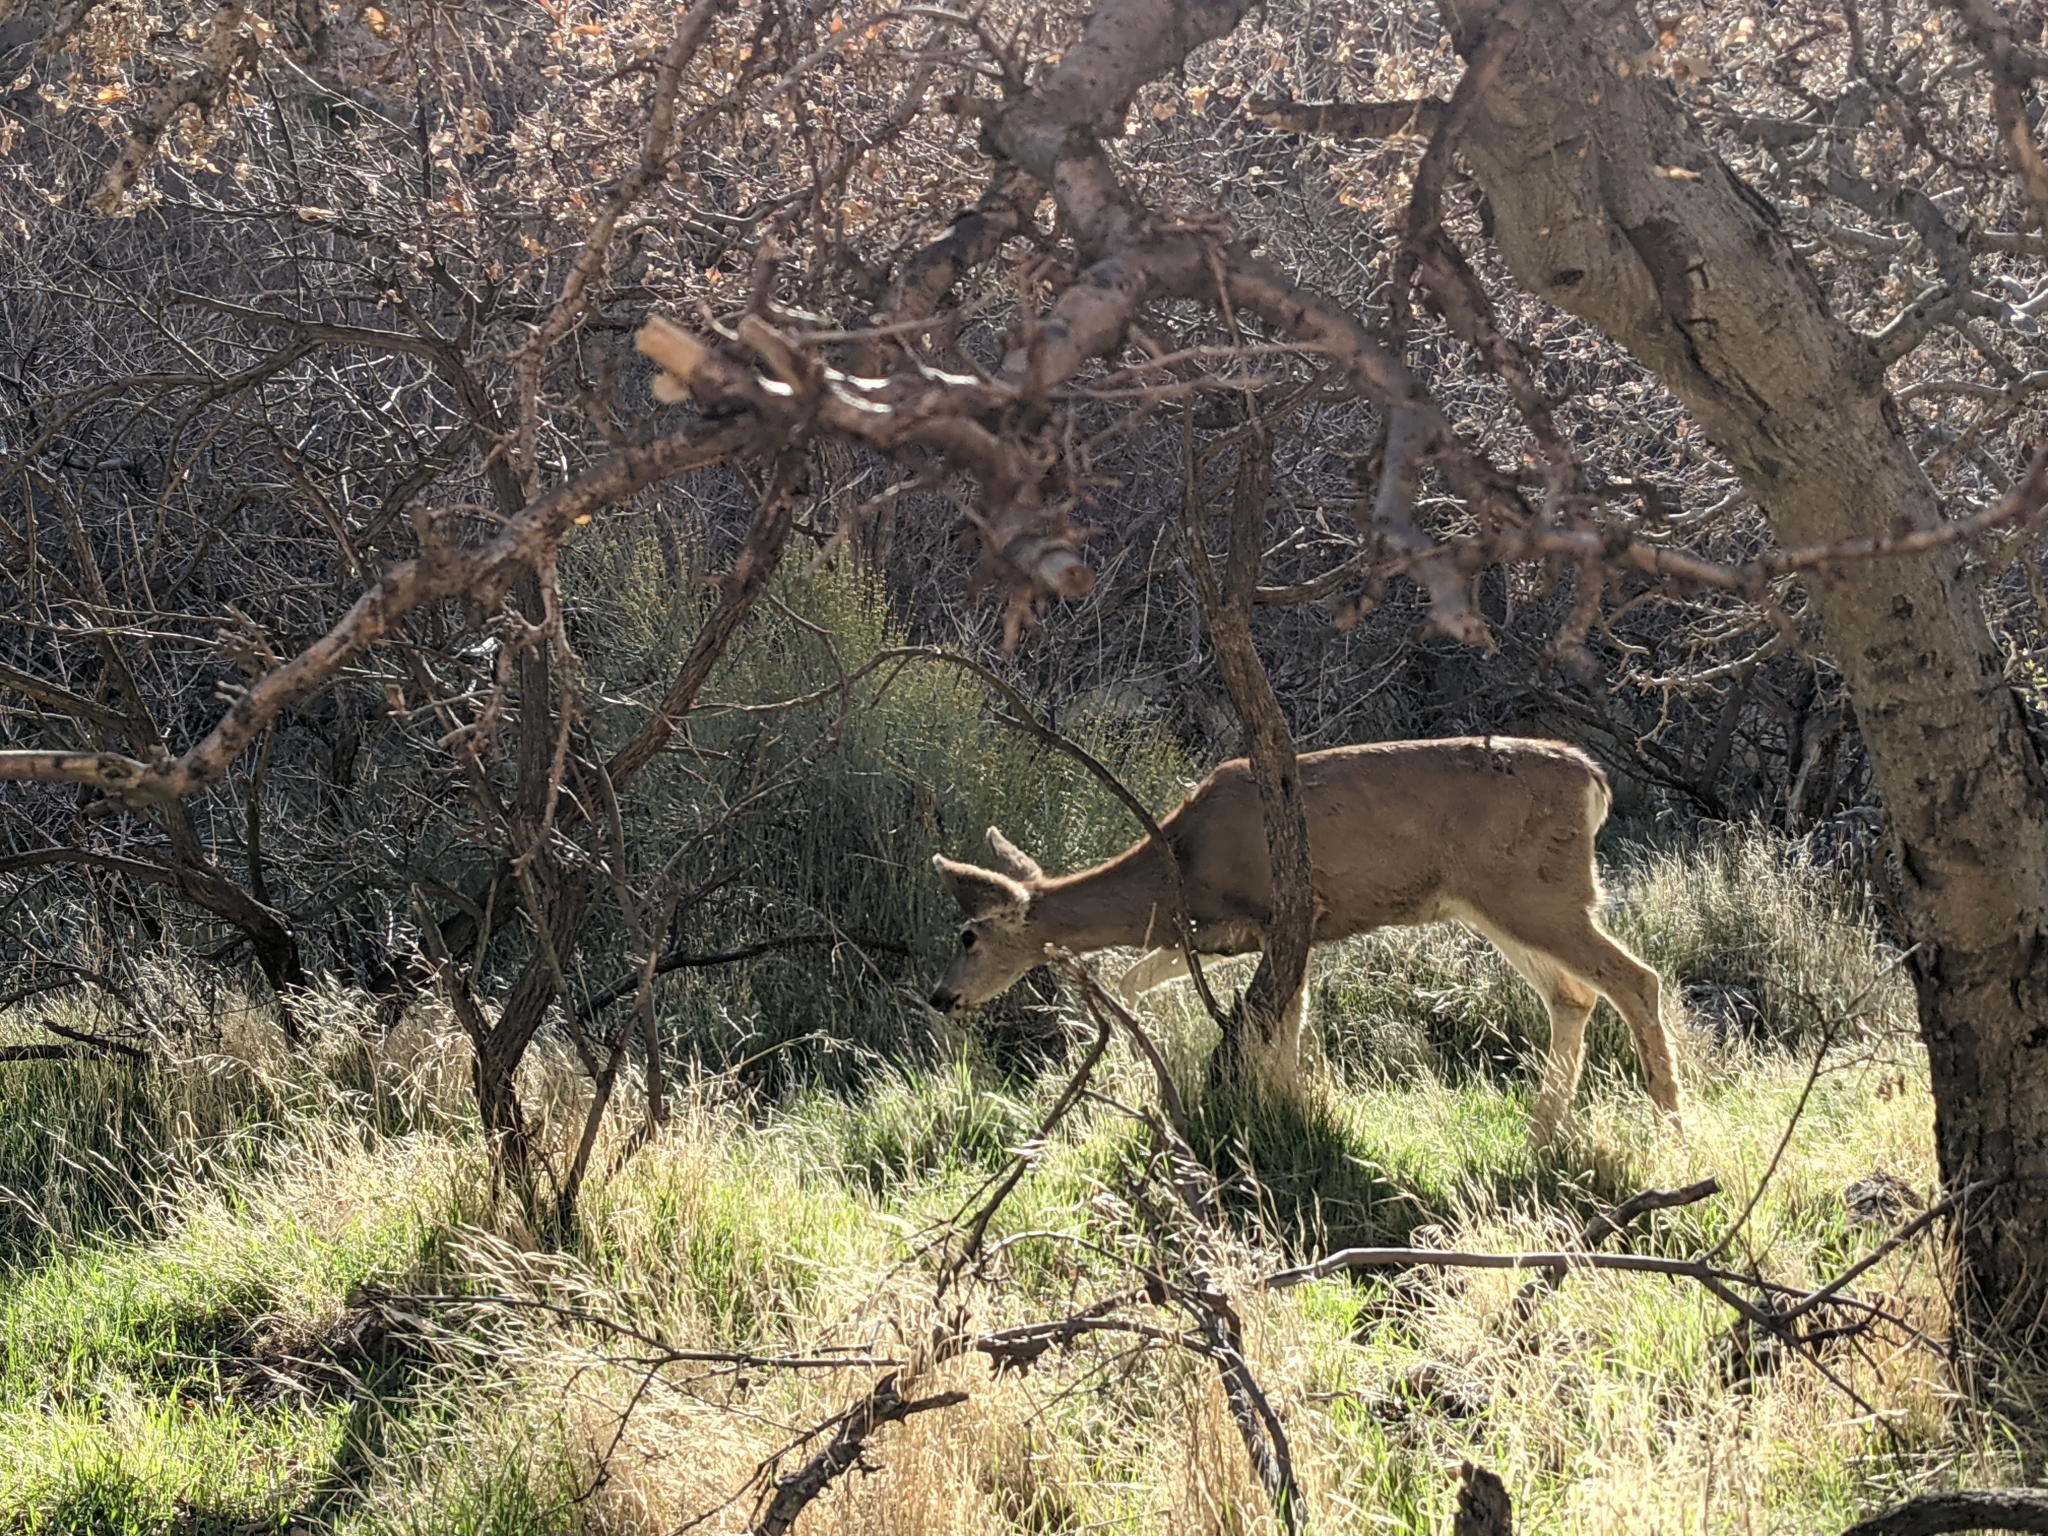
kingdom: Animalia
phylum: Chordata
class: Mammalia
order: Artiodactyla
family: Cervidae
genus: Odocoileus
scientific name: Odocoileus hemionus
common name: Mule deer
